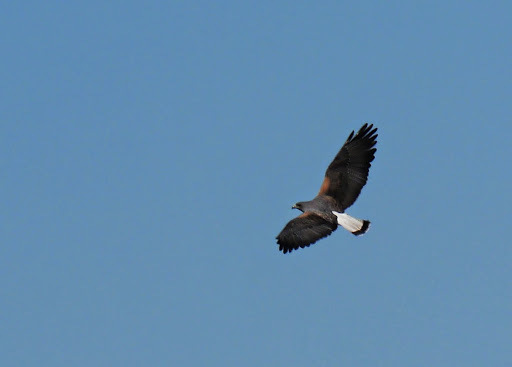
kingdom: Animalia
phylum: Chordata
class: Aves
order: Accipitriformes
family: Accipitridae
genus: Buteo
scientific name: Buteo albicaudatus
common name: White-tailed hawk
